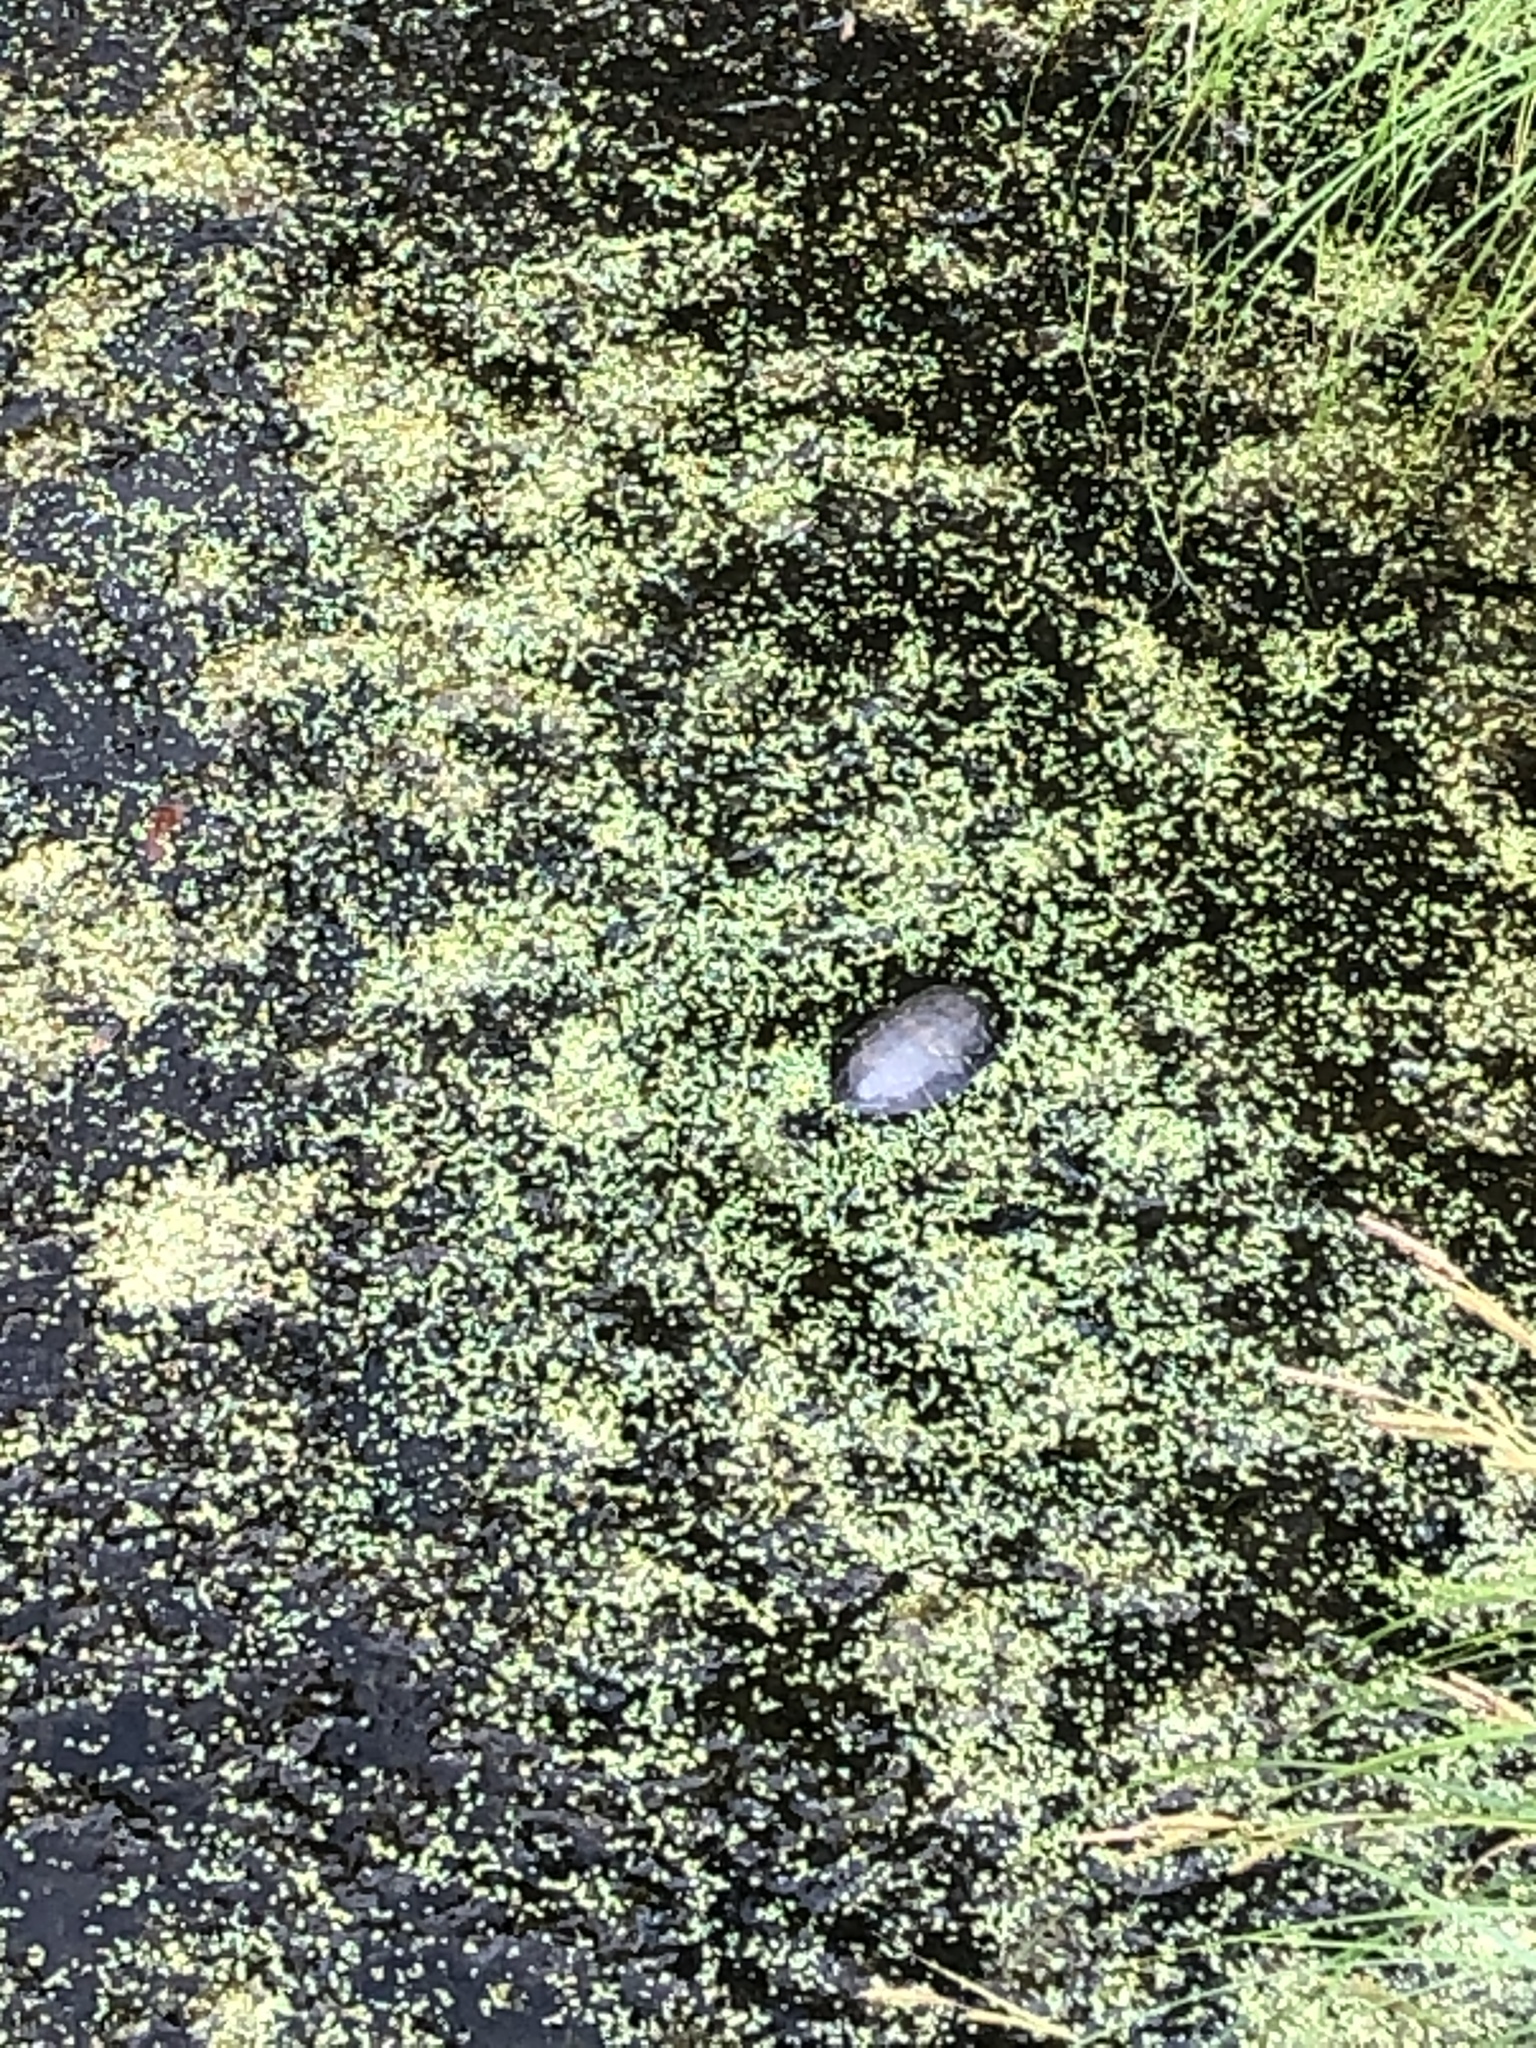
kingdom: Animalia
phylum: Chordata
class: Testudines
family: Emydidae
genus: Chrysemys
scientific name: Chrysemys picta
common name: Painted turtle
